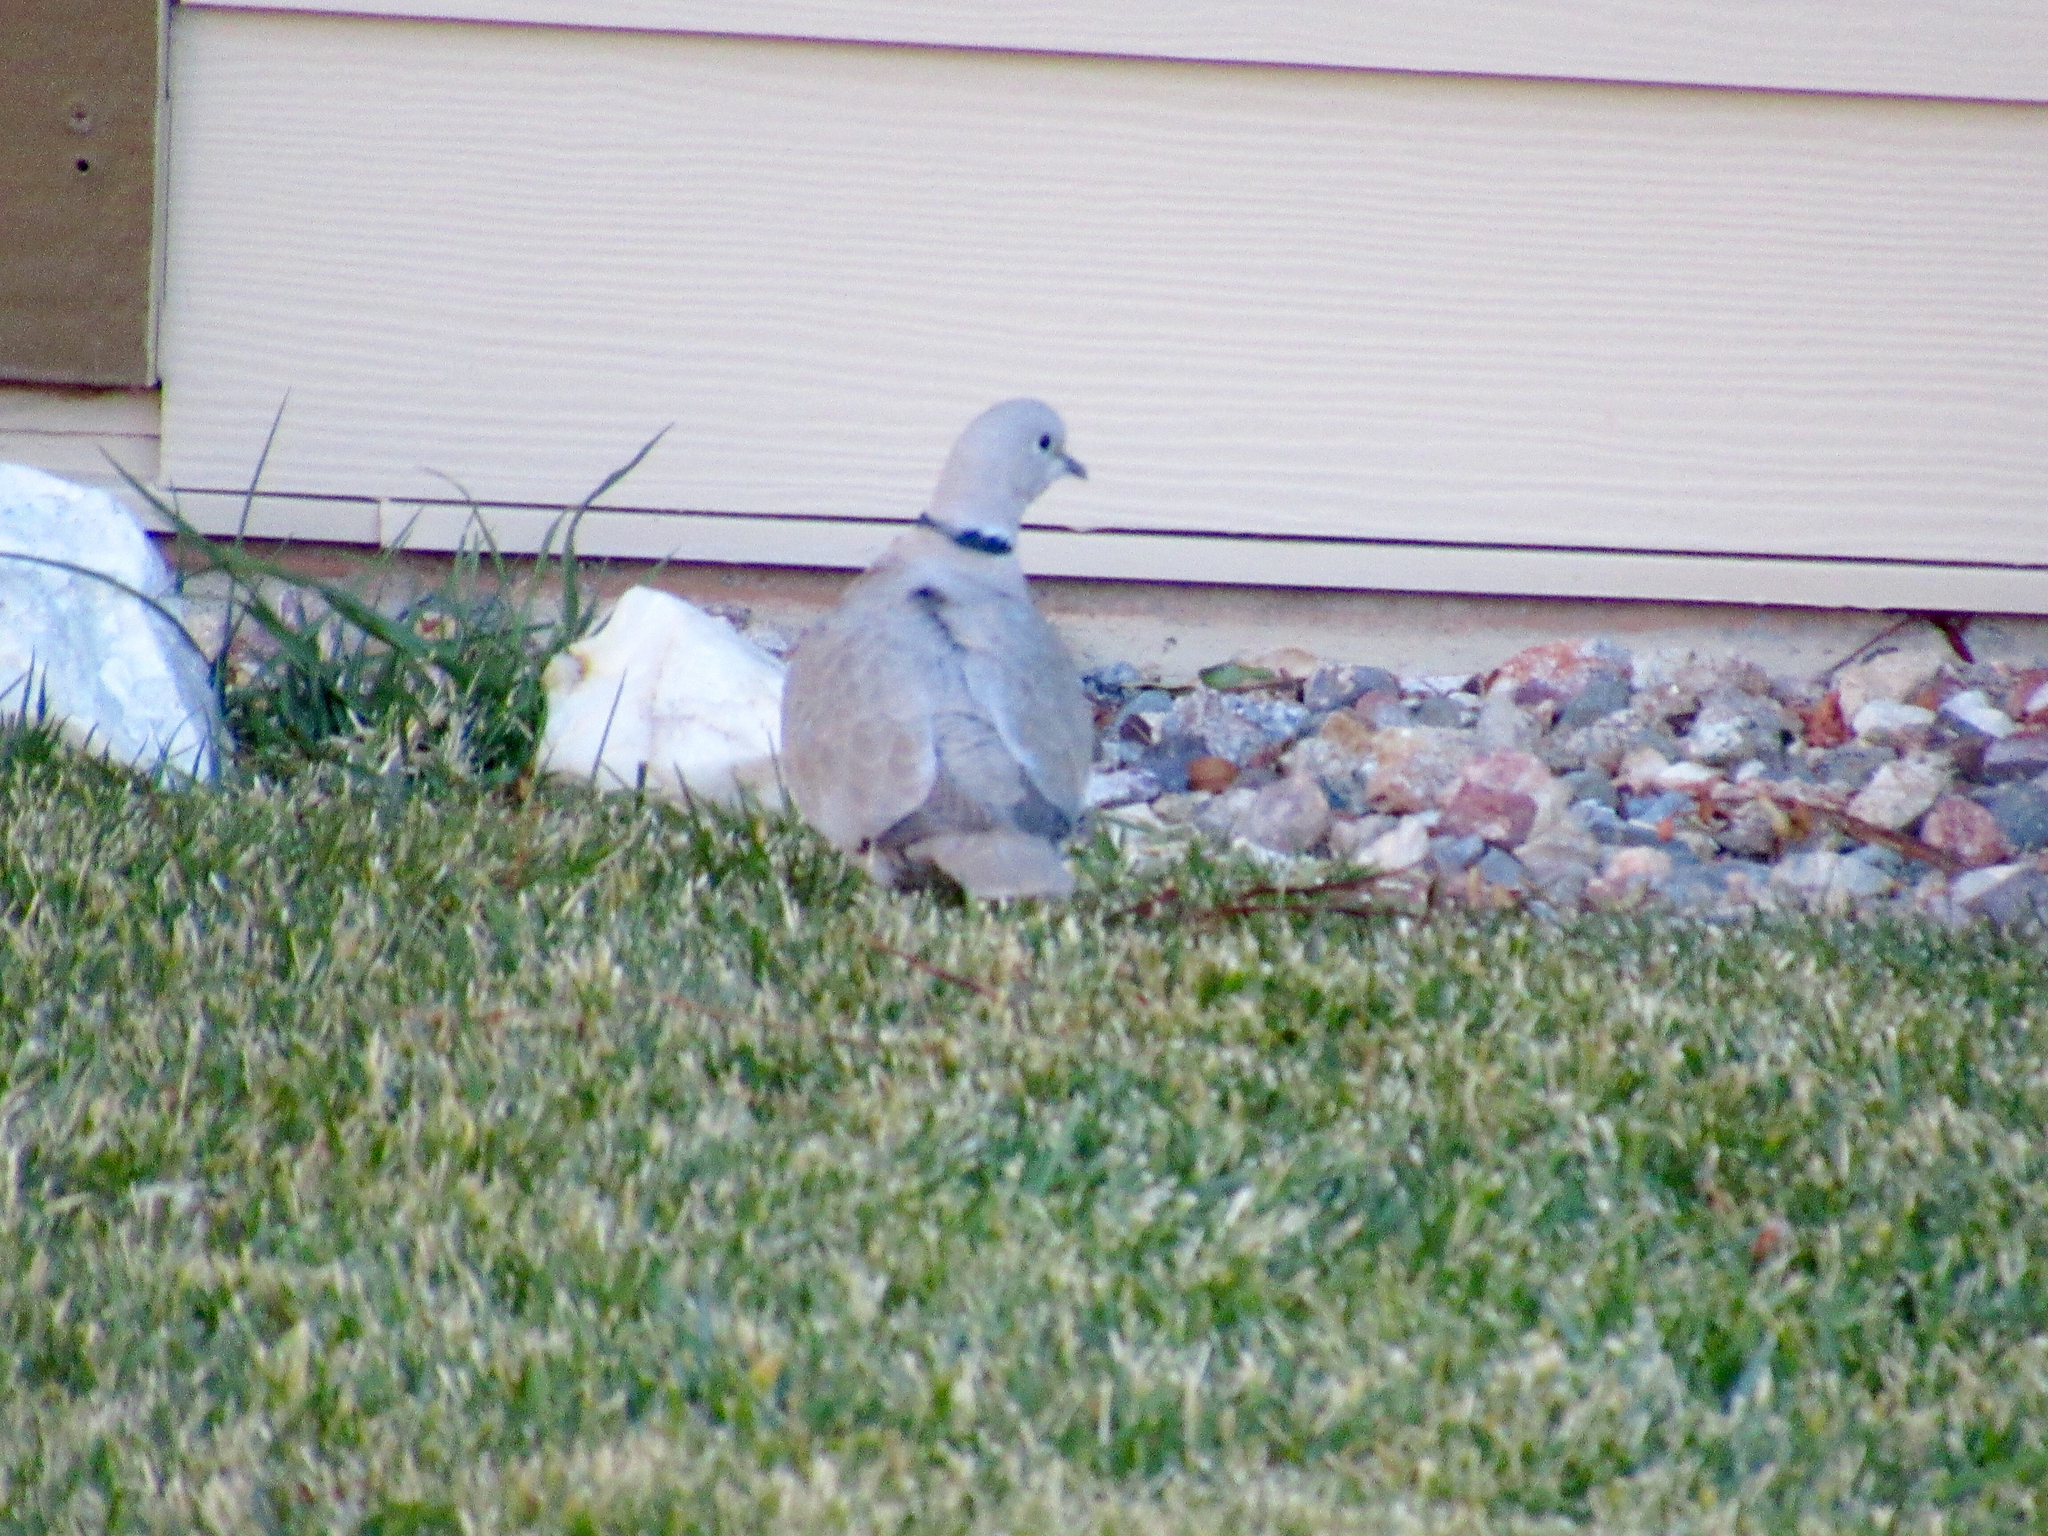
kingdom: Animalia
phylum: Chordata
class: Aves
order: Columbiformes
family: Columbidae
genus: Streptopelia
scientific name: Streptopelia decaocto
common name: Eurasian collared dove
